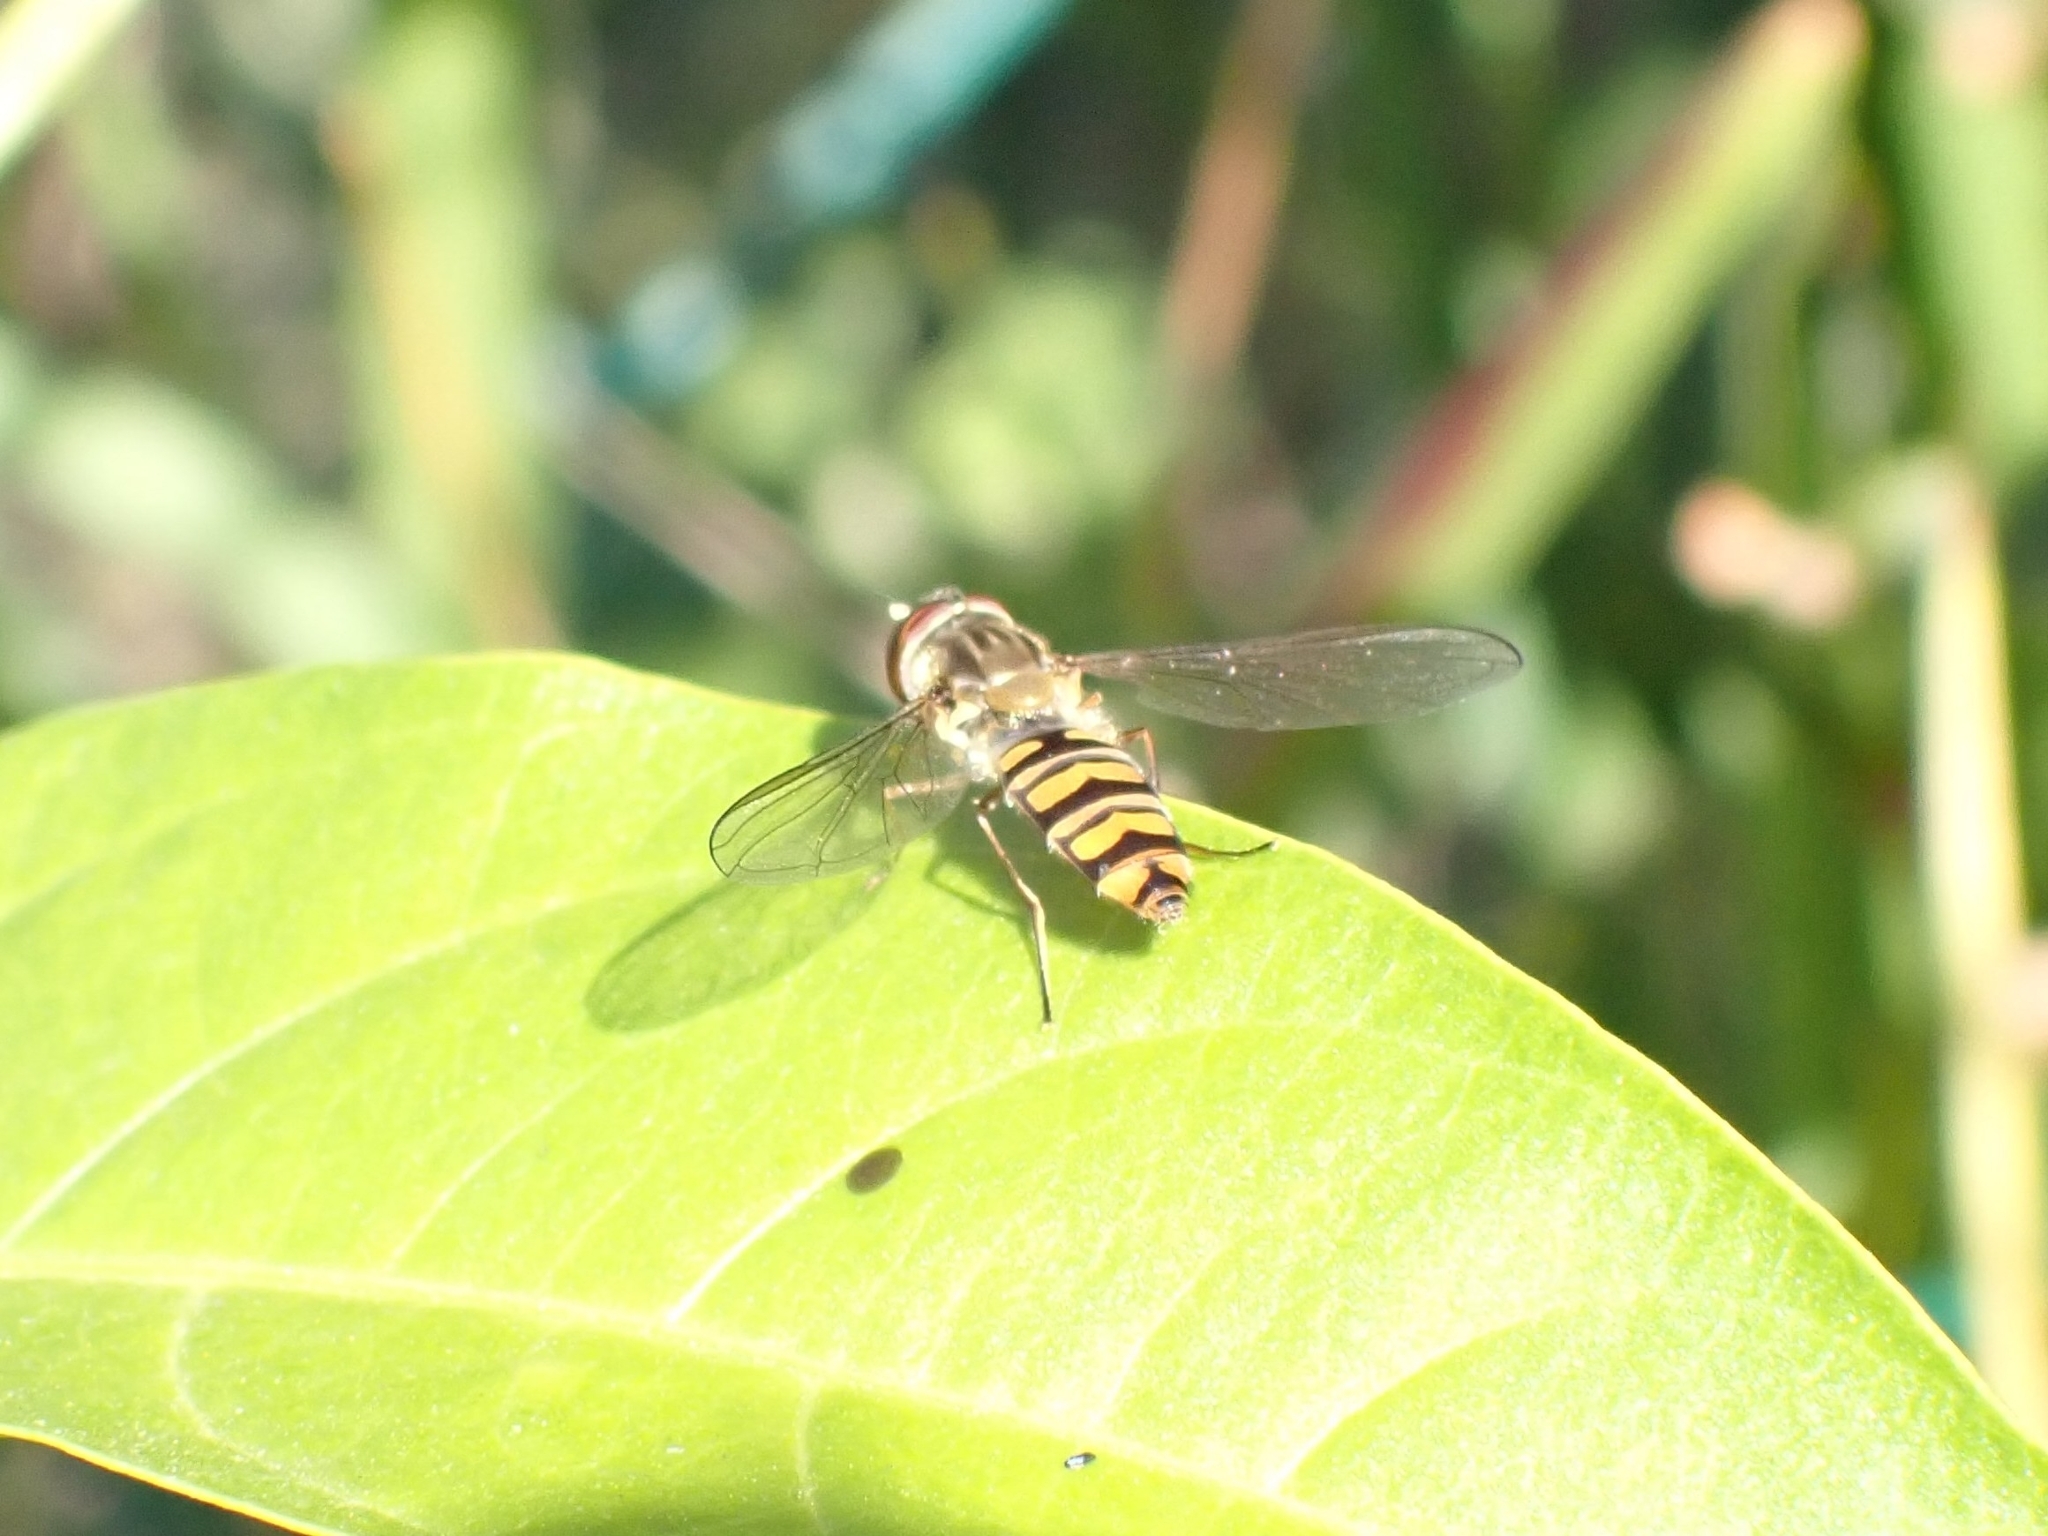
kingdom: Animalia
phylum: Arthropoda
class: Insecta
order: Diptera
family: Syrphidae
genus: Episyrphus
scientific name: Episyrphus balteatus
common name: Marmalade hoverfly
